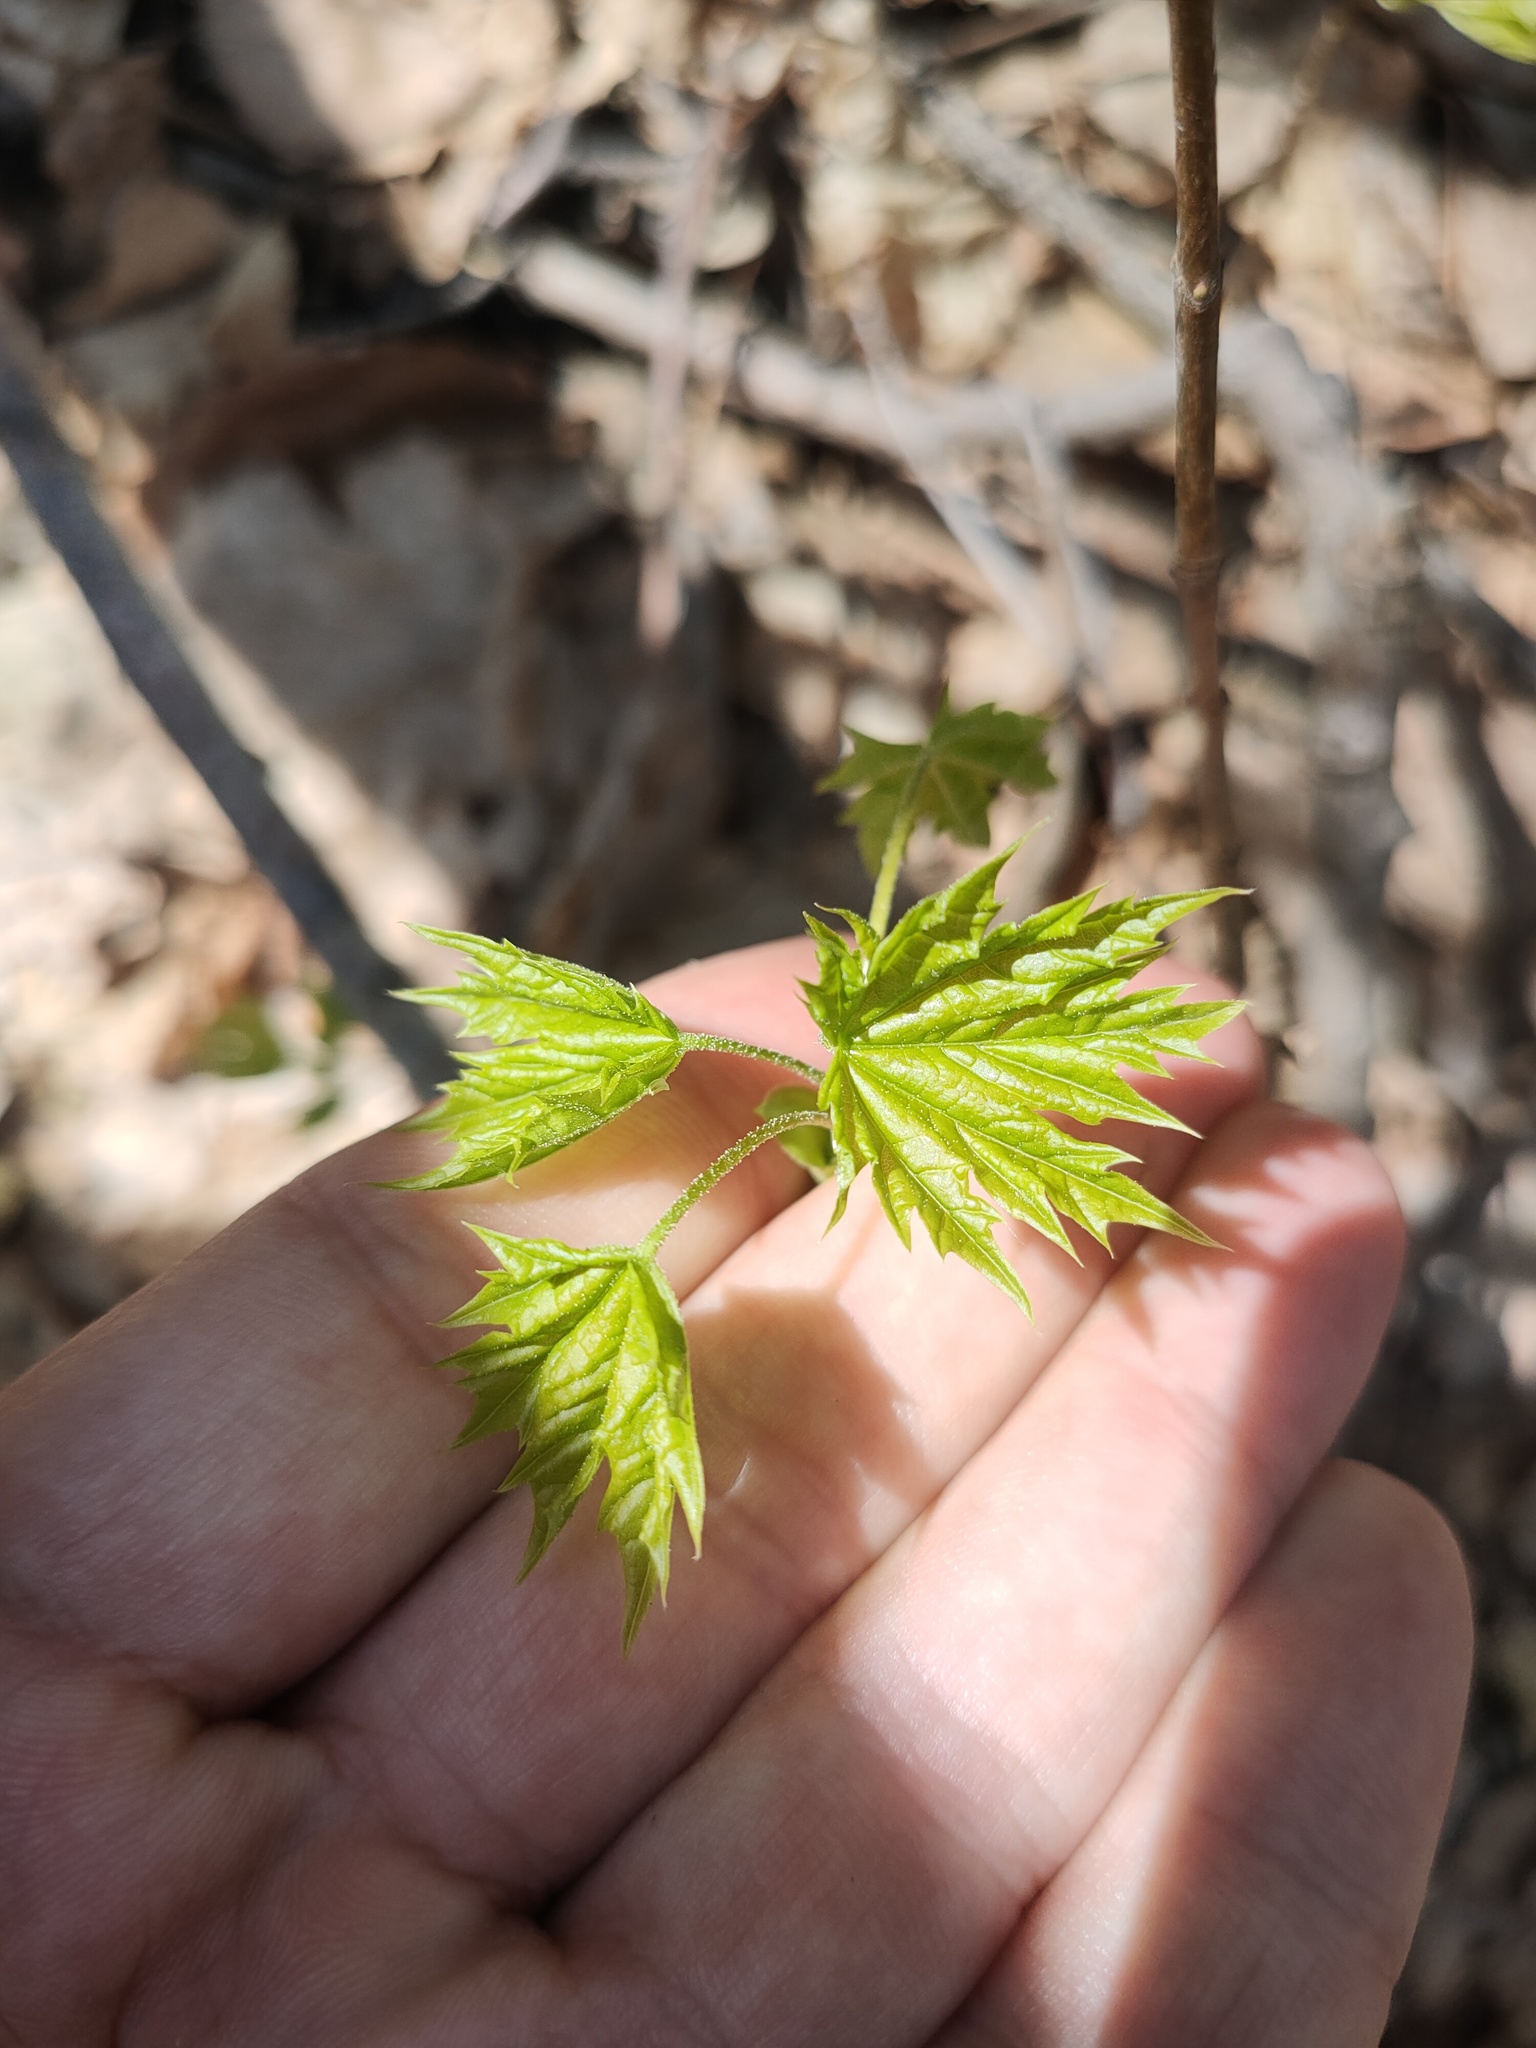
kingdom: Plantae
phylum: Tracheophyta
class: Magnoliopsida
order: Sapindales
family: Sapindaceae
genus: Acer
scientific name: Acer platanoides
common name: Norway maple
